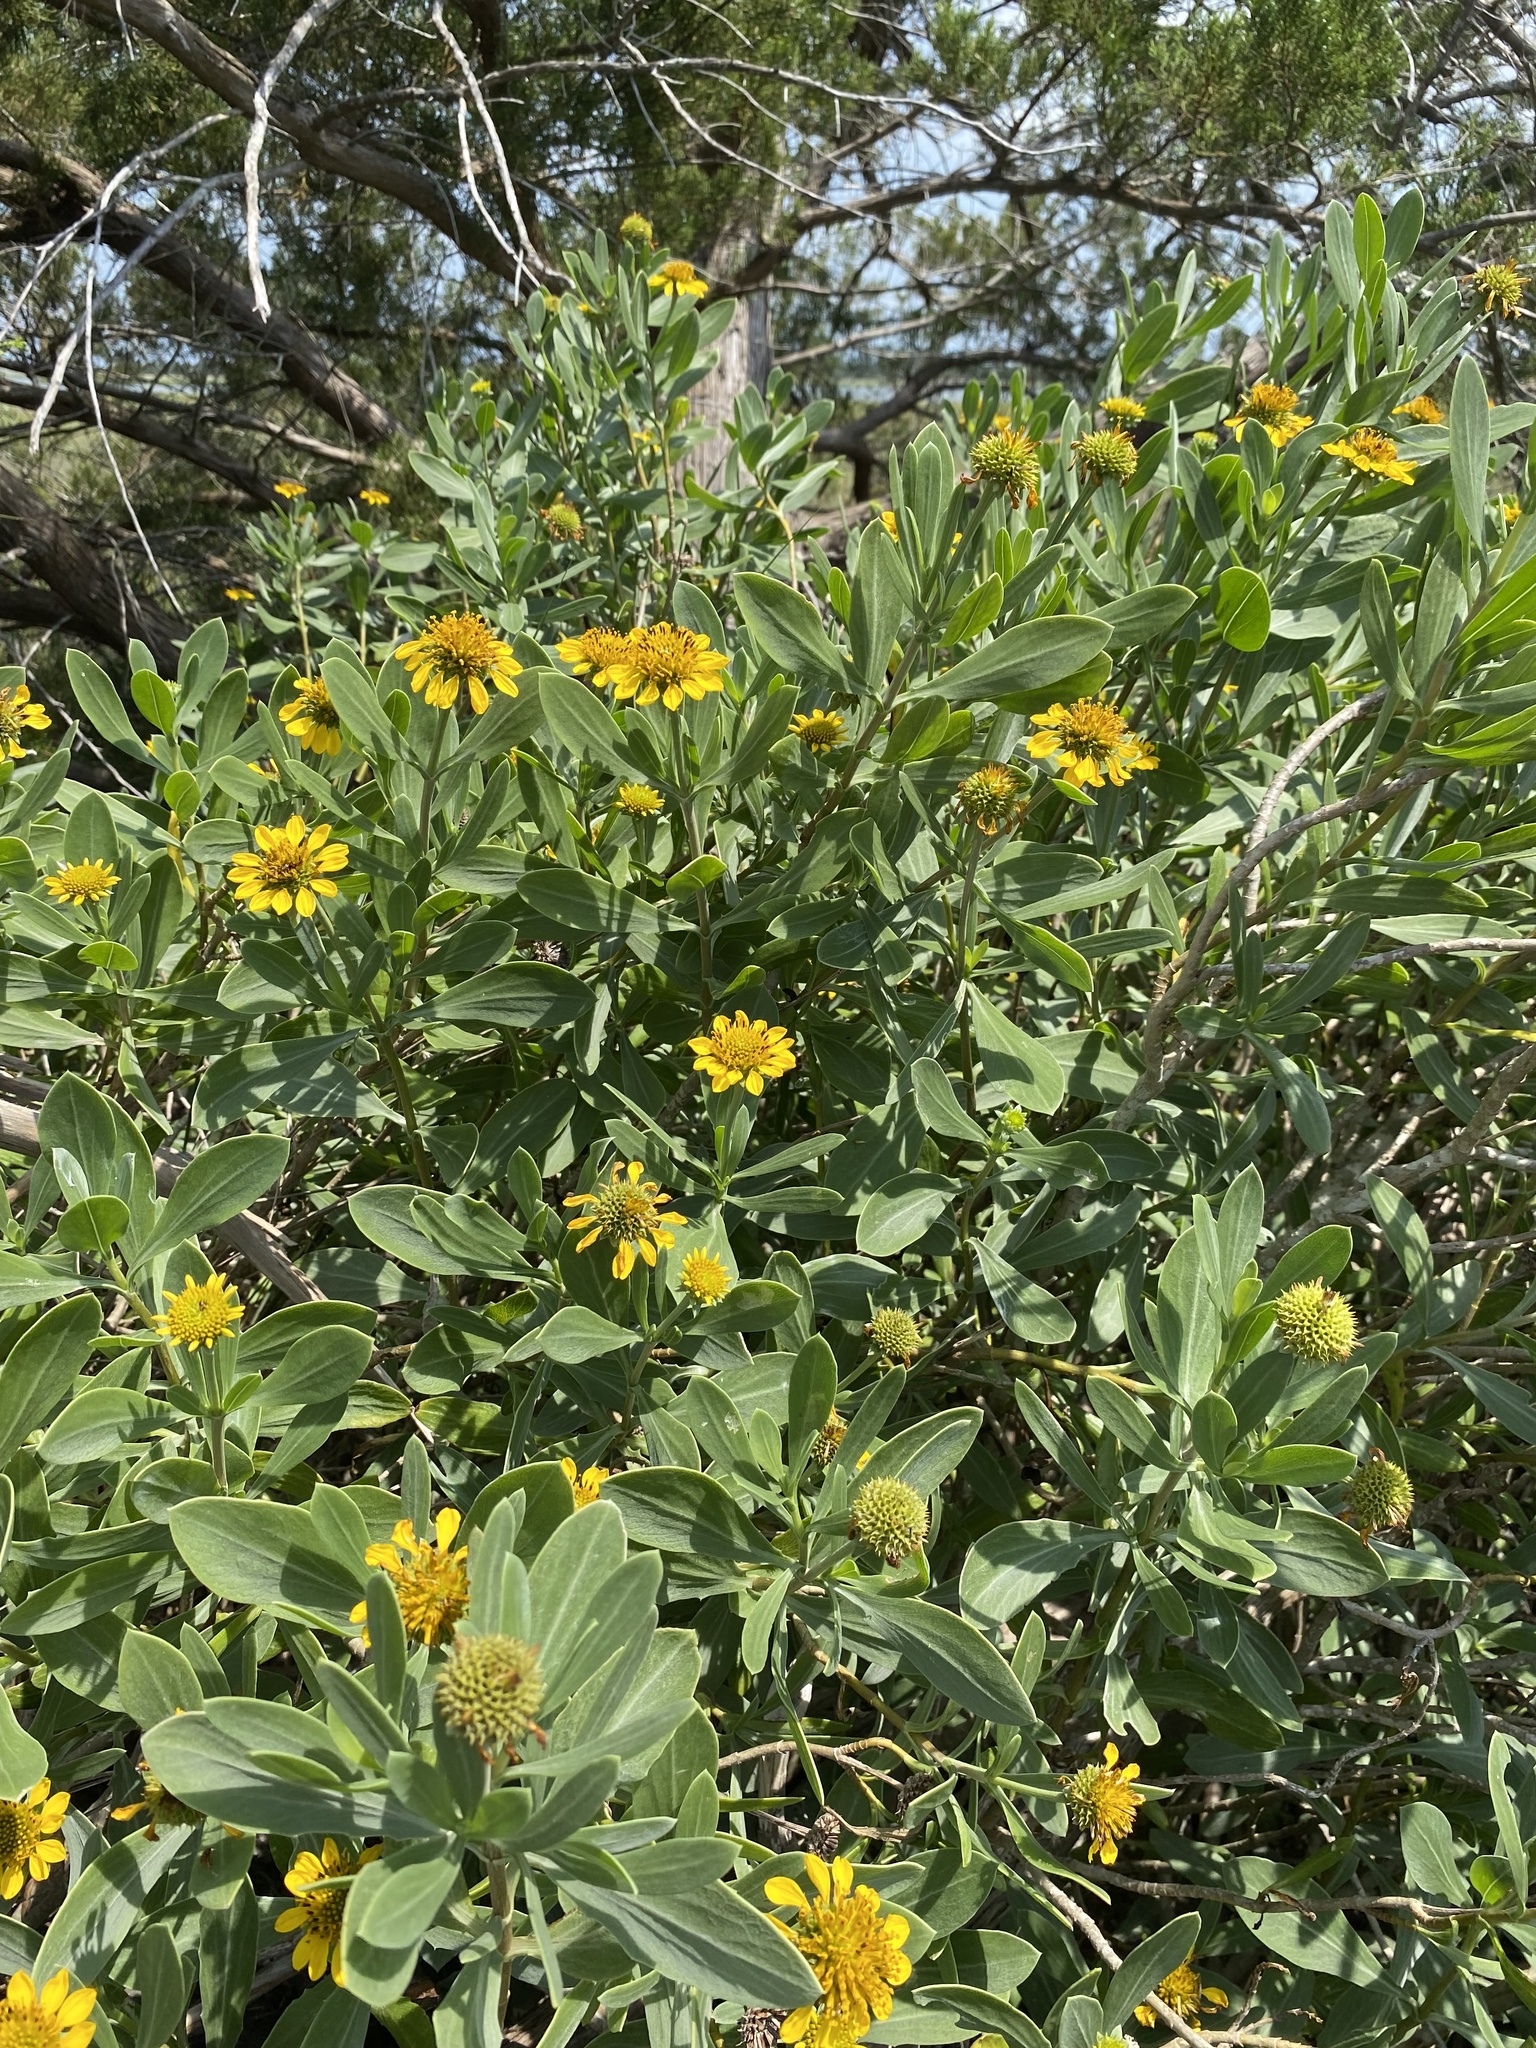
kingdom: Plantae
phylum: Tracheophyta
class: Magnoliopsida
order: Asterales
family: Asteraceae
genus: Borrichia
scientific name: Borrichia frutescens
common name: Sea oxeye
